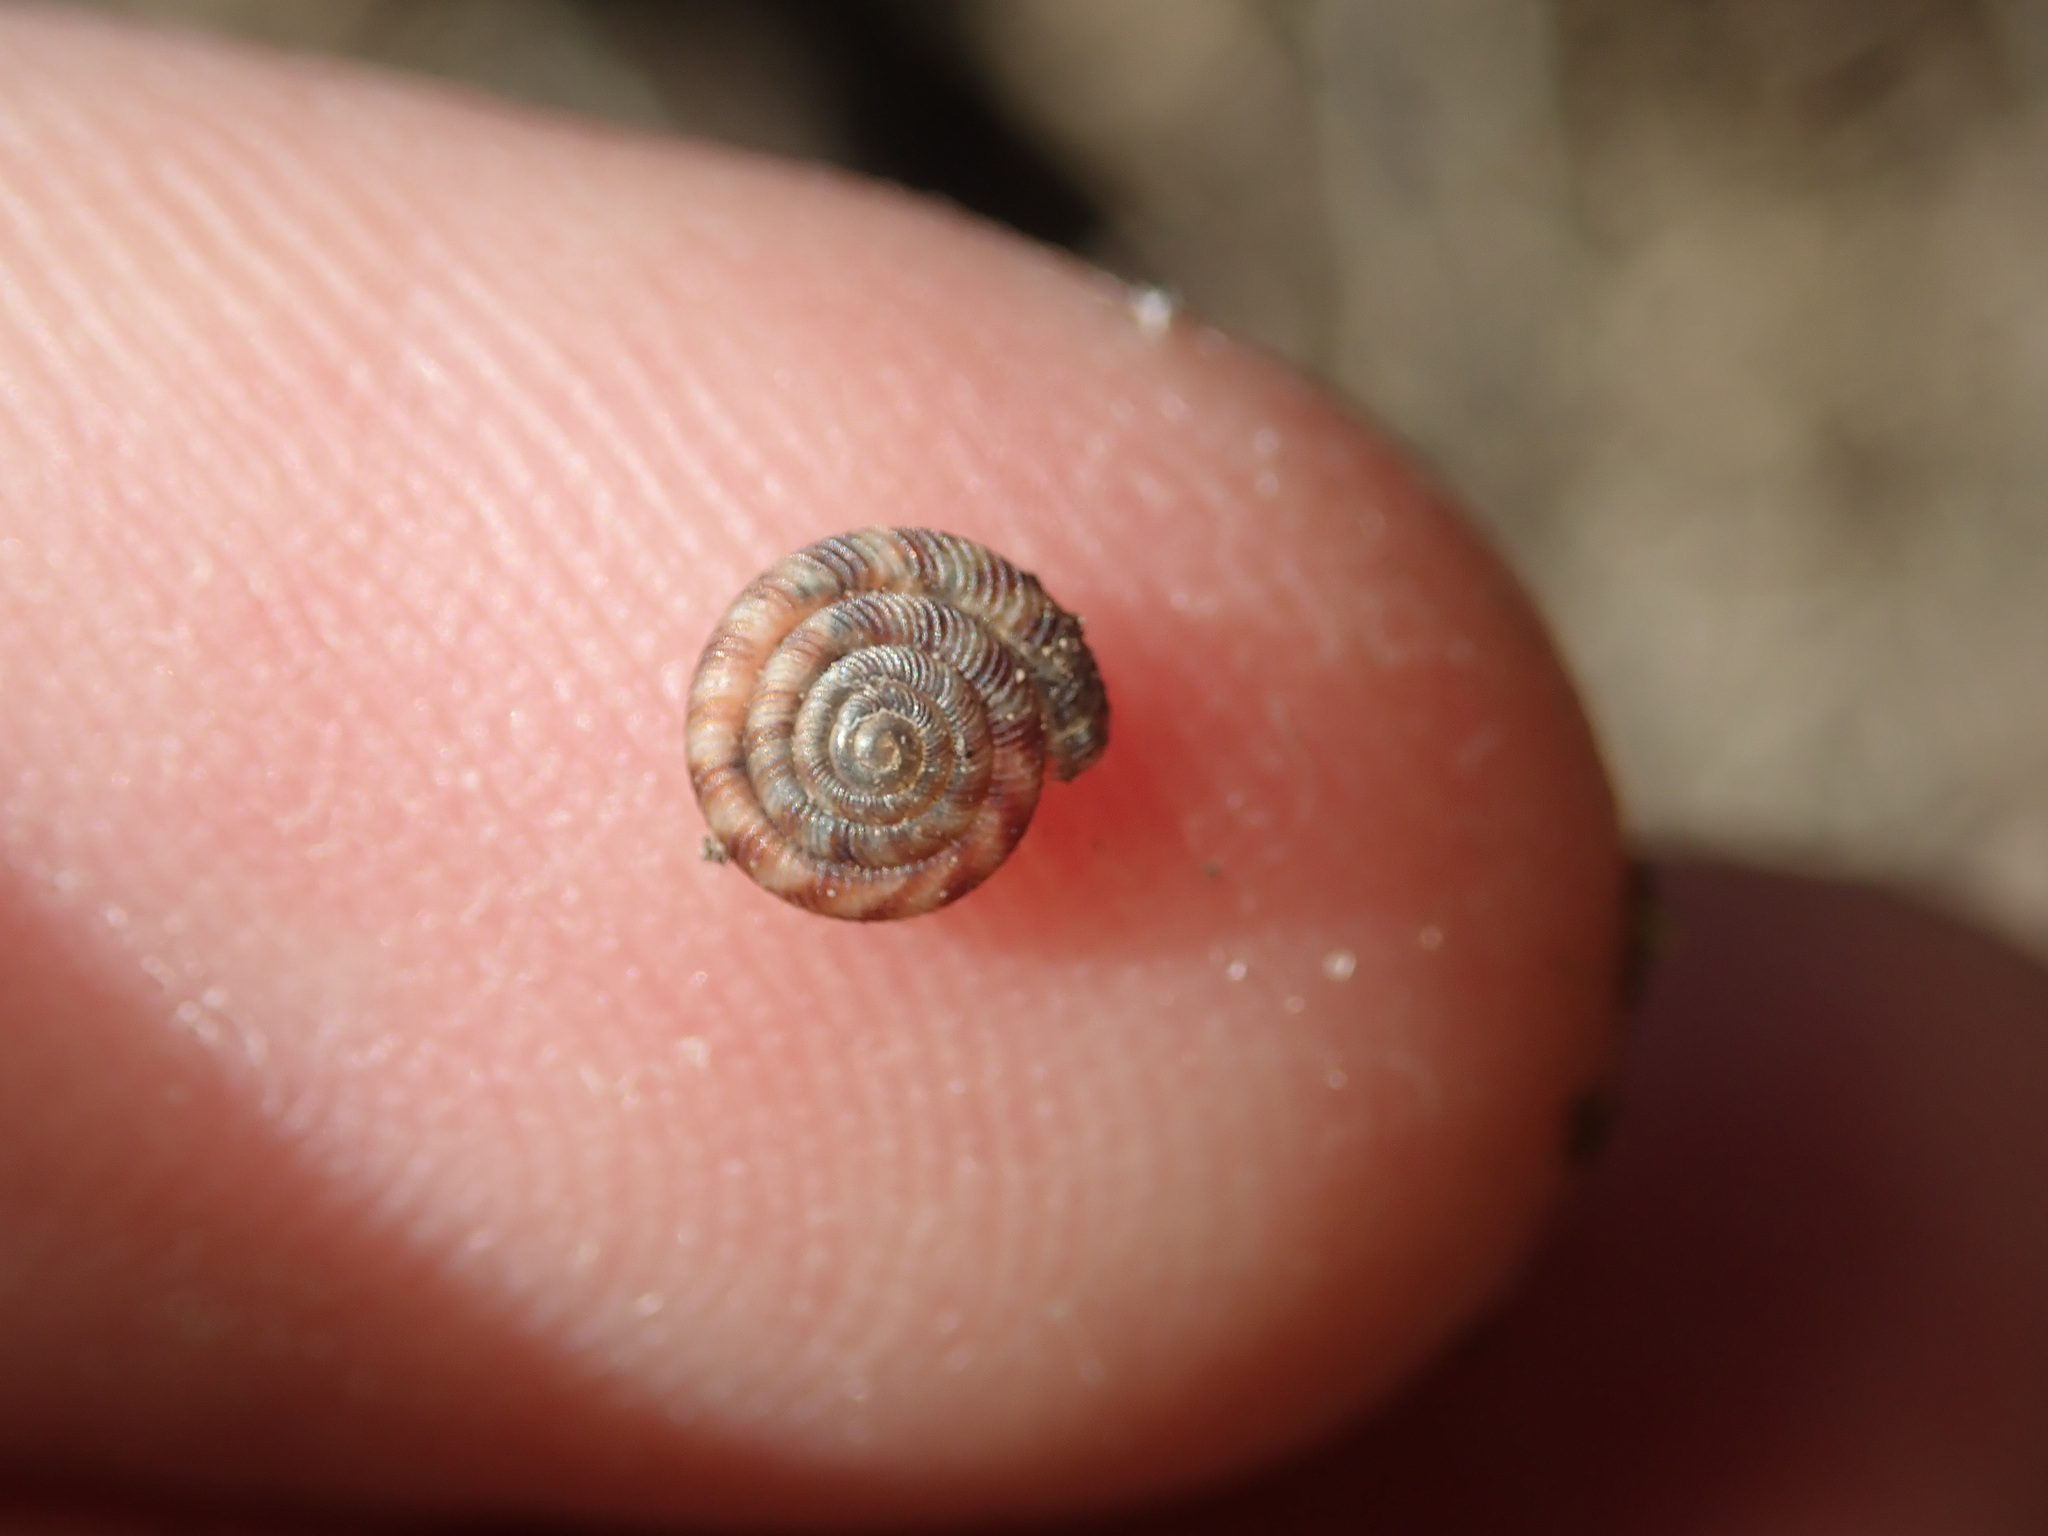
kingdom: Animalia
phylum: Mollusca
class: Gastropoda
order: Stylommatophora
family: Discidae
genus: Discus
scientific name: Discus rotundatus
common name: Rounded snail
